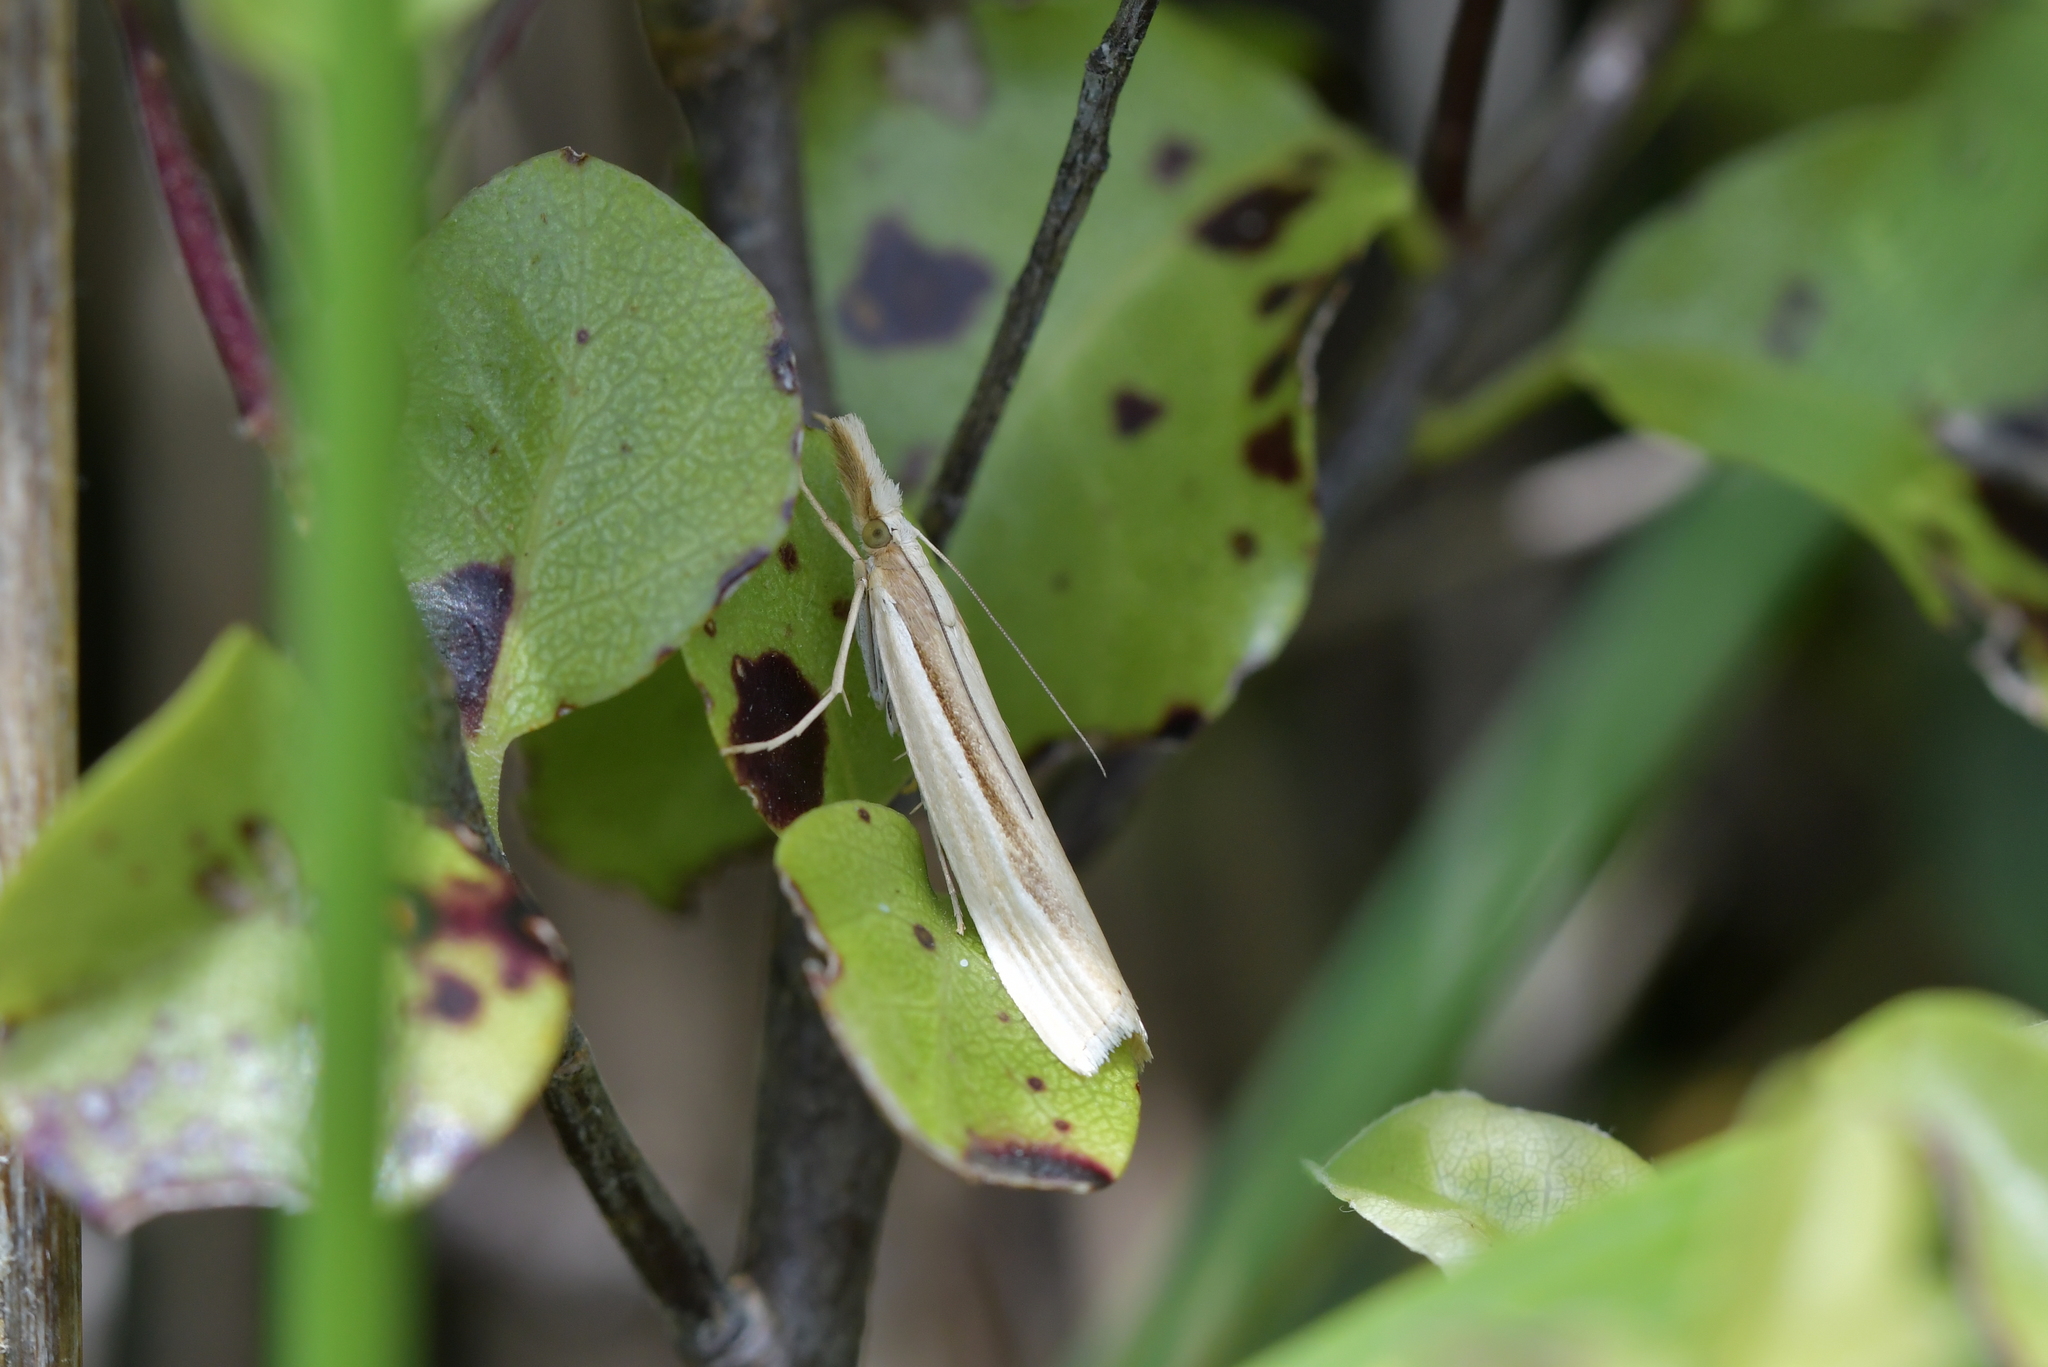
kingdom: Animalia
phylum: Arthropoda
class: Insecta
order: Lepidoptera
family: Crambidae
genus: Orocrambus
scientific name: Orocrambus ramosellus
